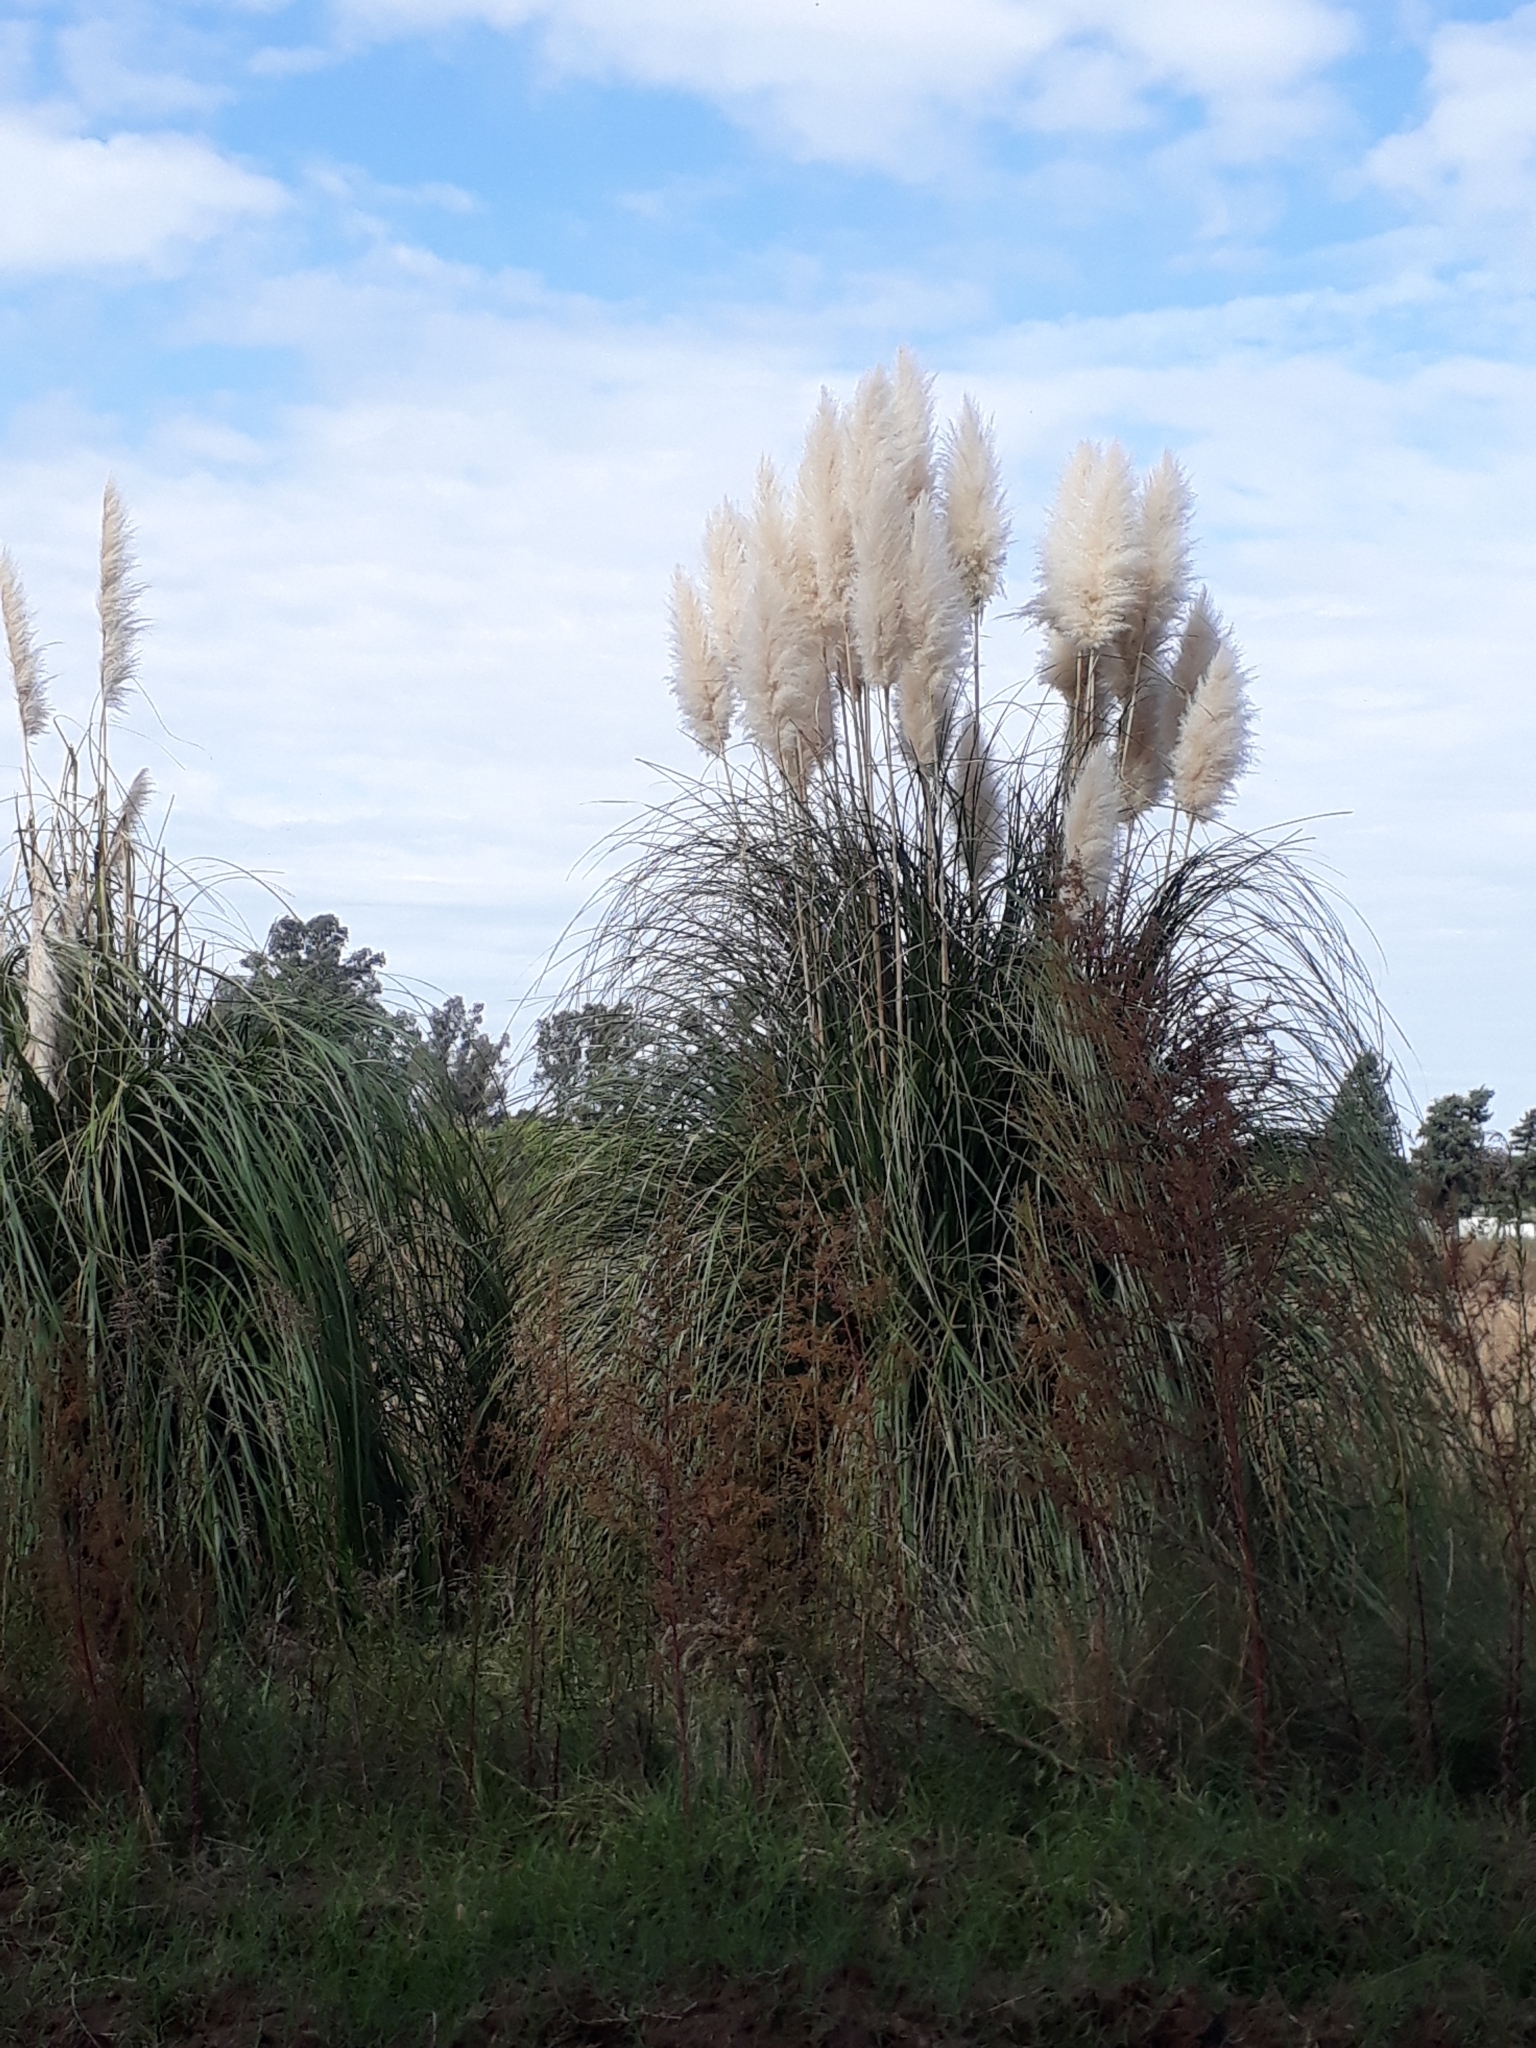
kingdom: Plantae
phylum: Tracheophyta
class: Liliopsida
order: Poales
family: Poaceae
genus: Cortaderia
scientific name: Cortaderia selloana
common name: Uruguayan pampas grass
